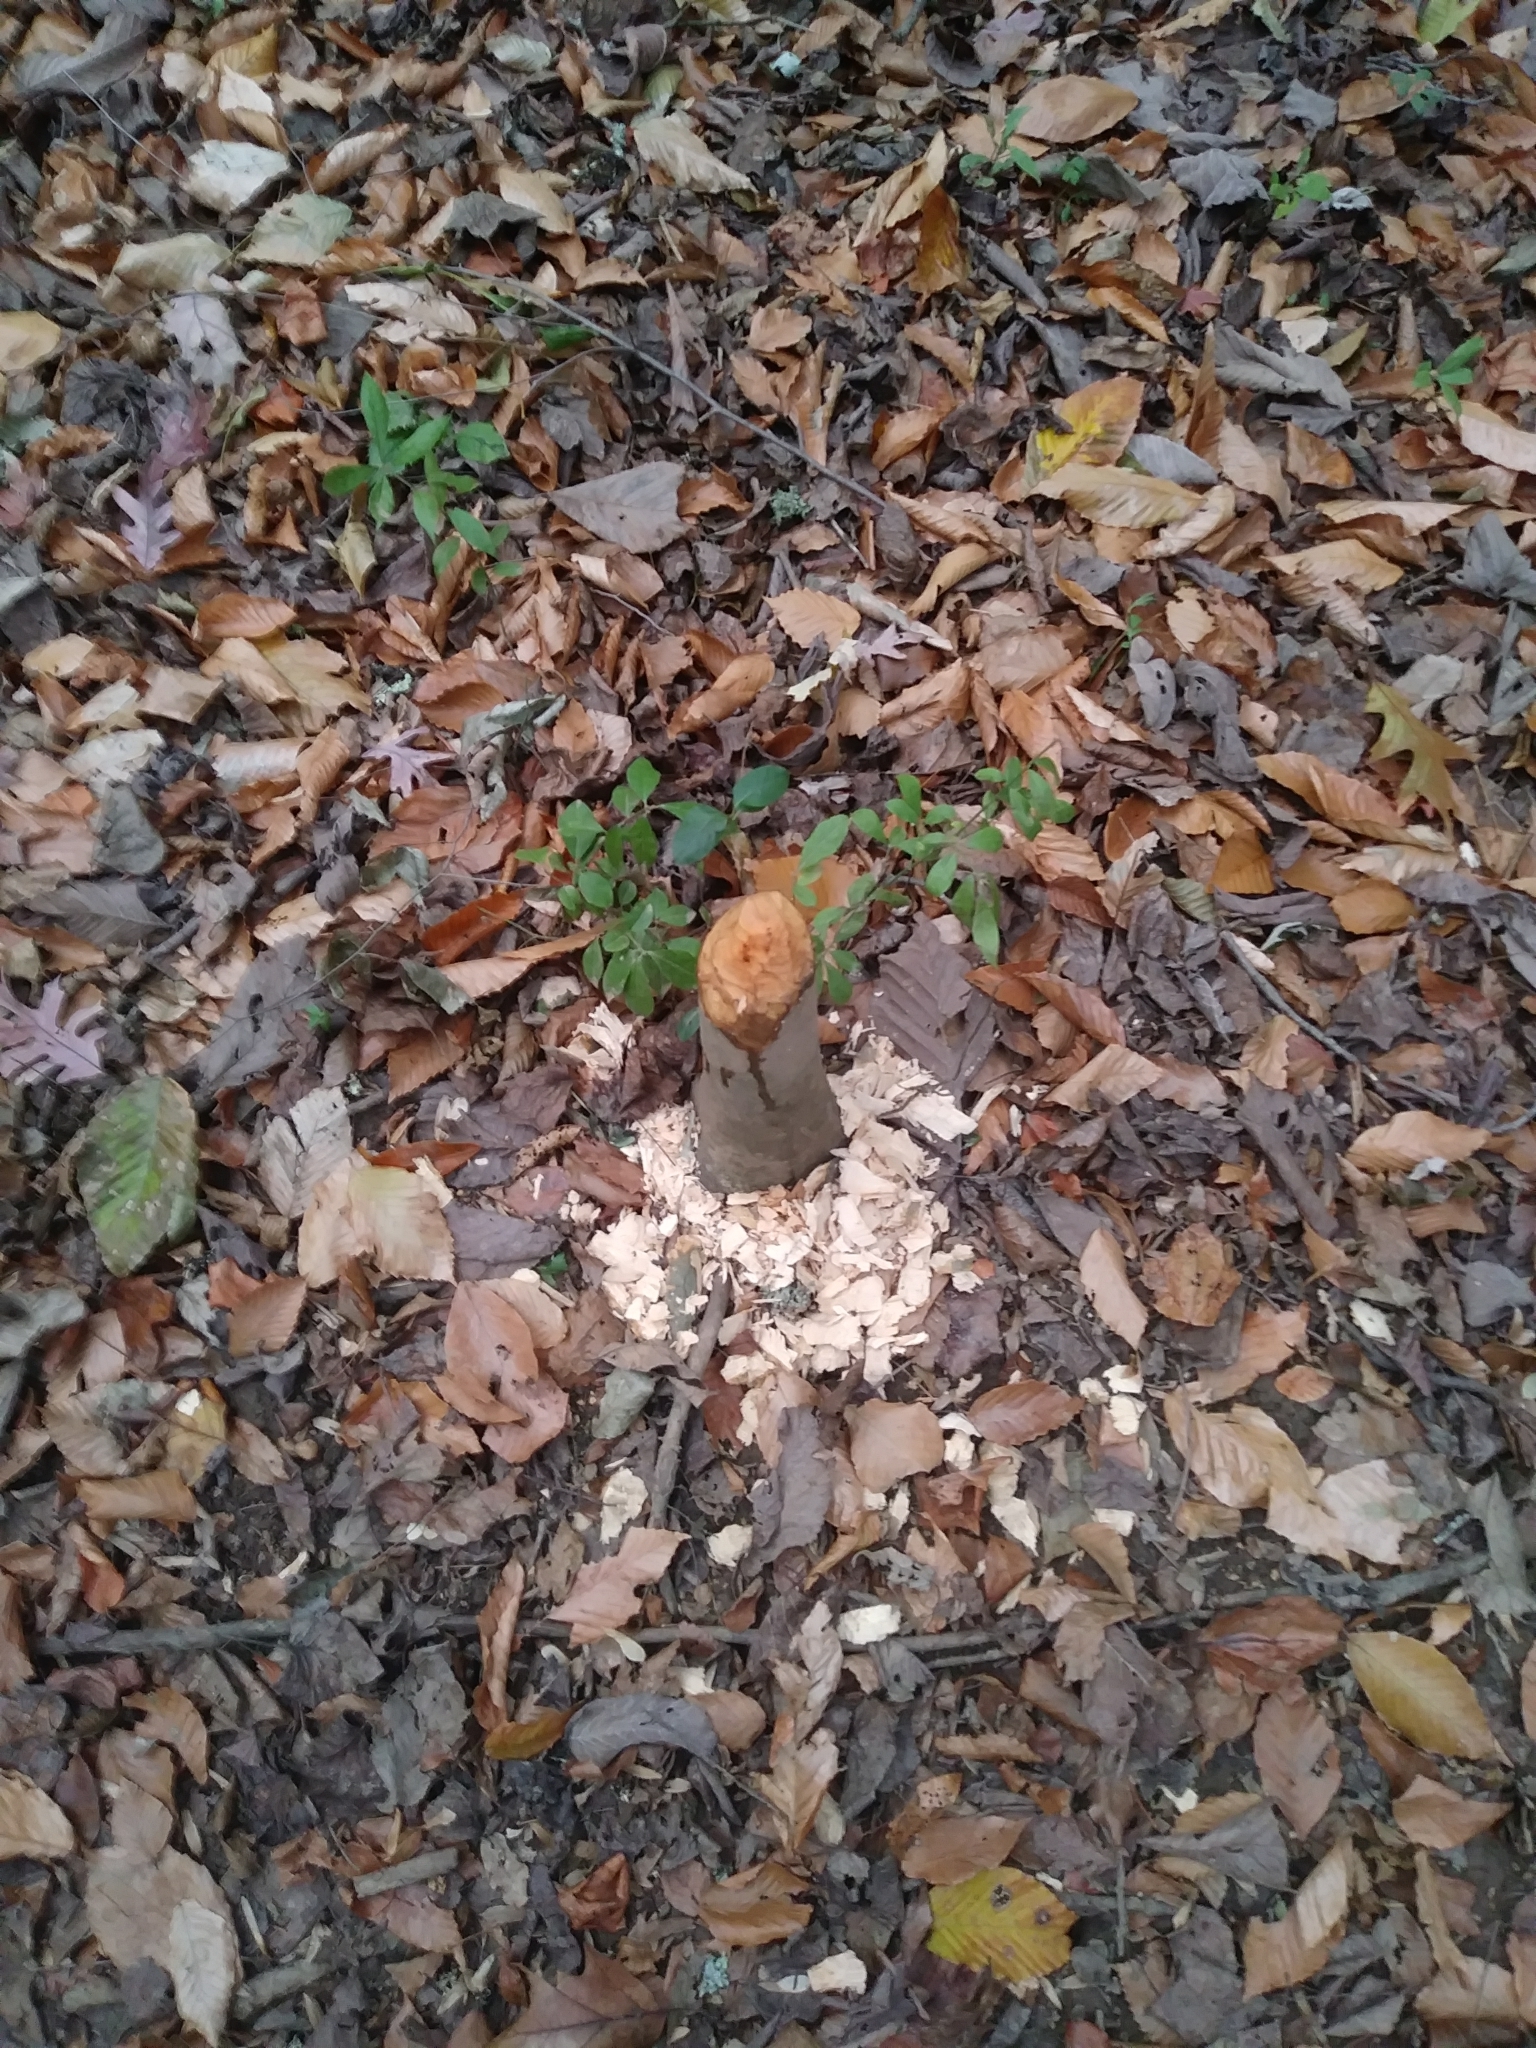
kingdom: Animalia
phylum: Chordata
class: Mammalia
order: Rodentia
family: Castoridae
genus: Castor
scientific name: Castor canadensis
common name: American beaver
